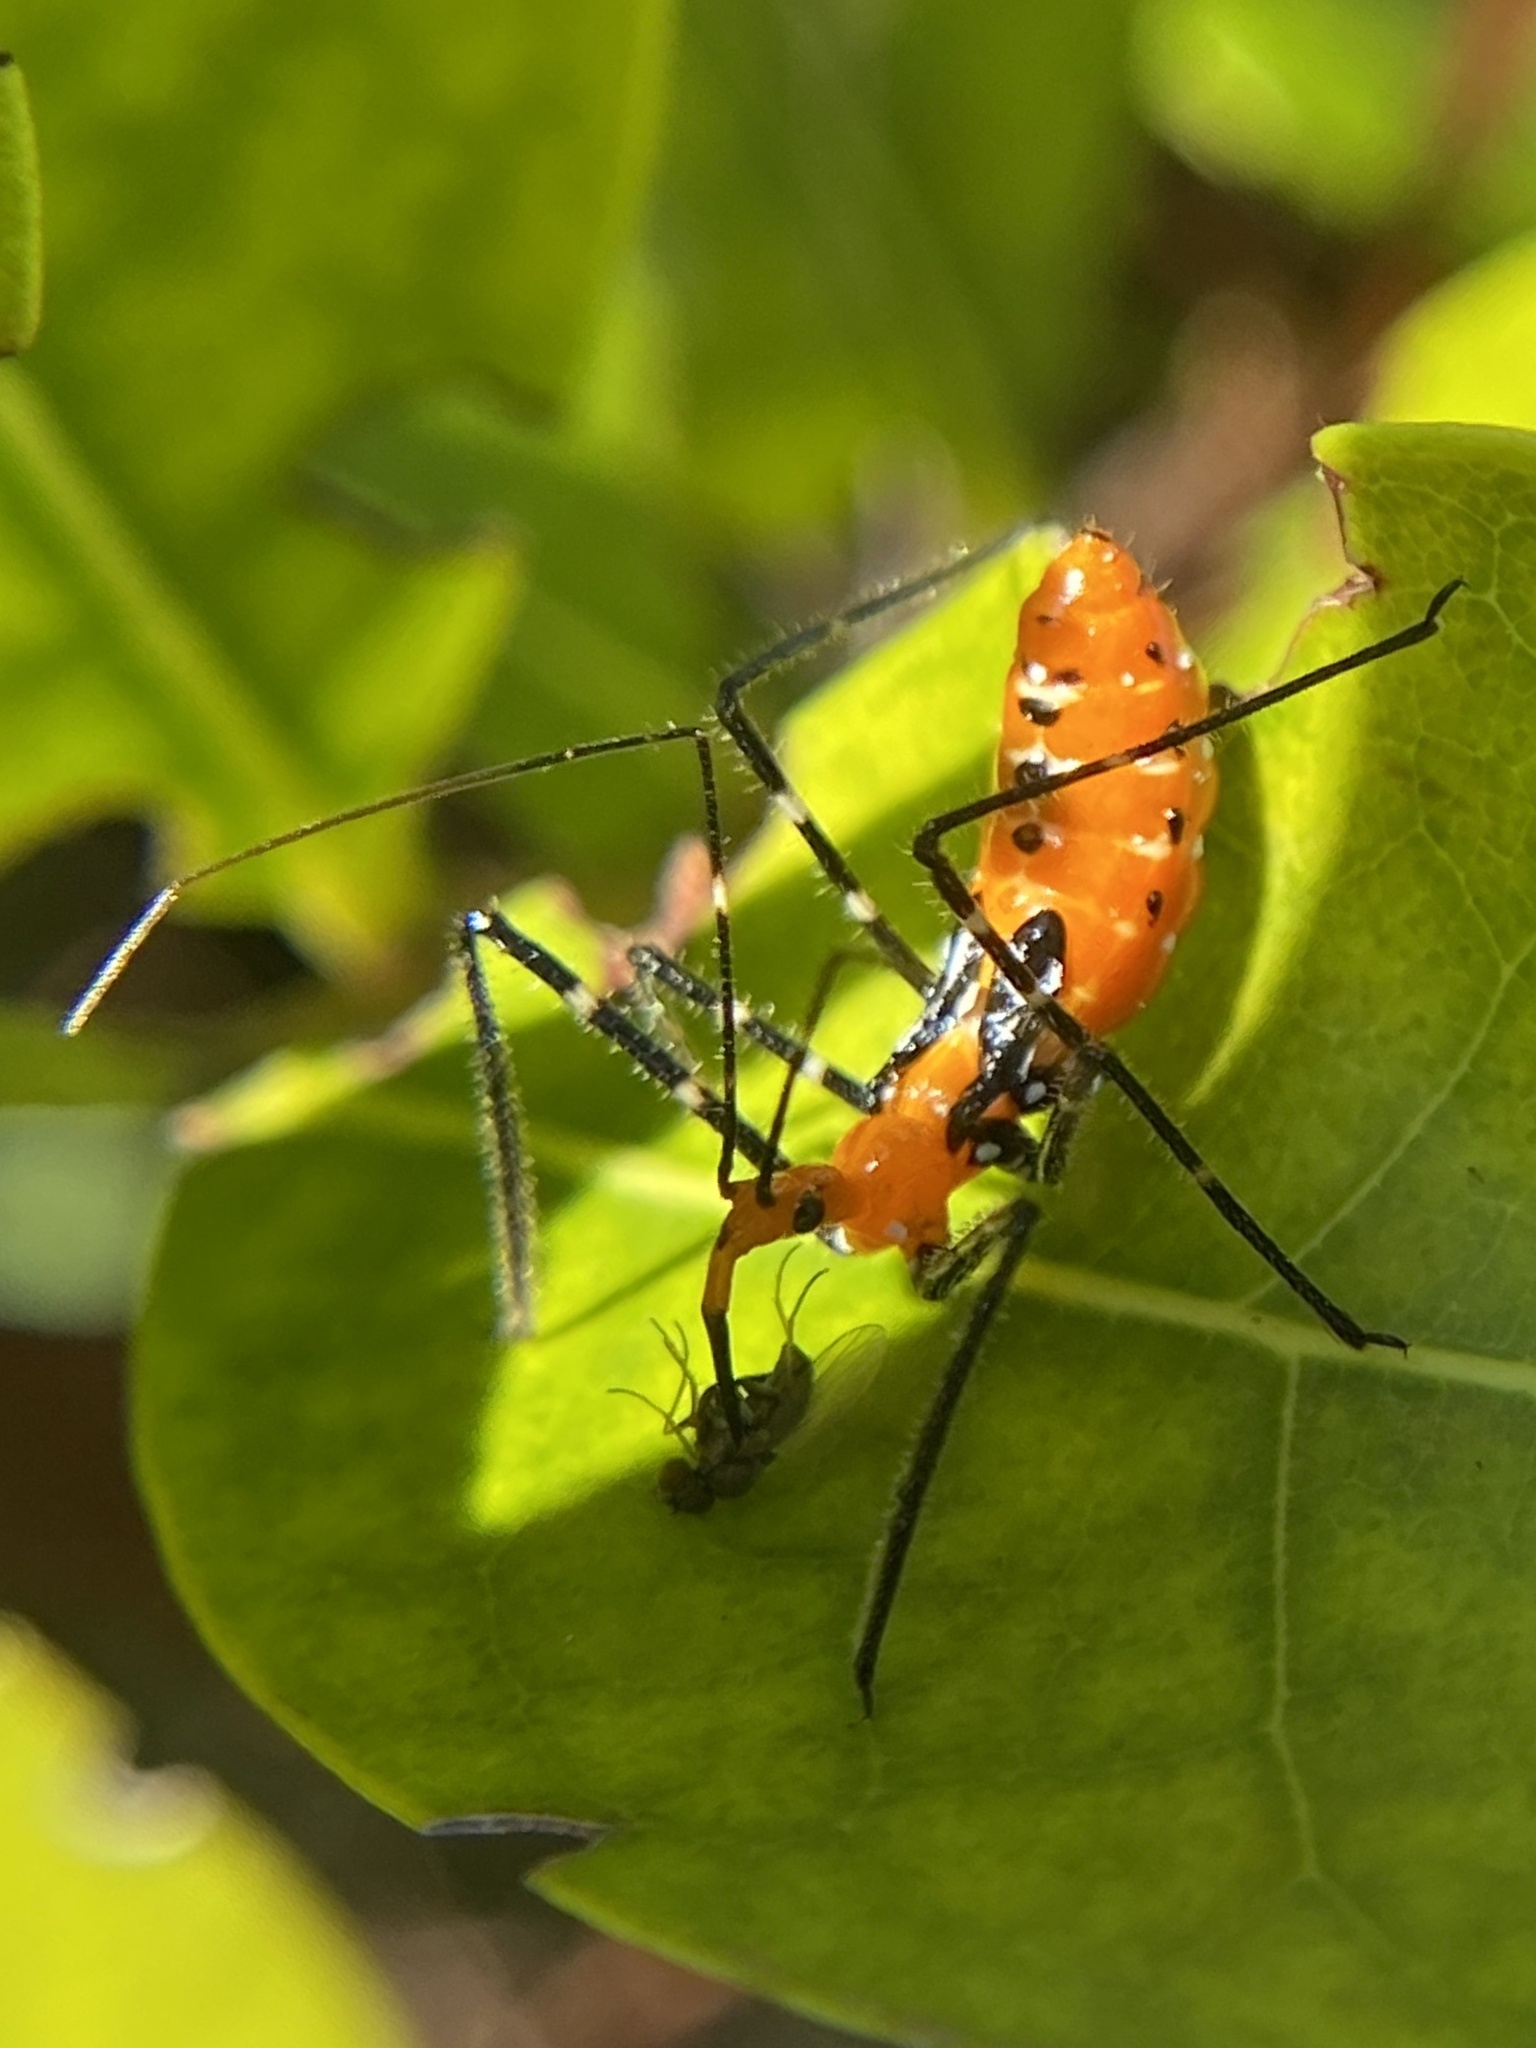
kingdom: Animalia
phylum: Arthropoda
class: Insecta
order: Hemiptera
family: Reduviidae
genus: Zelus
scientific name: Zelus longipes
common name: Milkweed assassin bug
